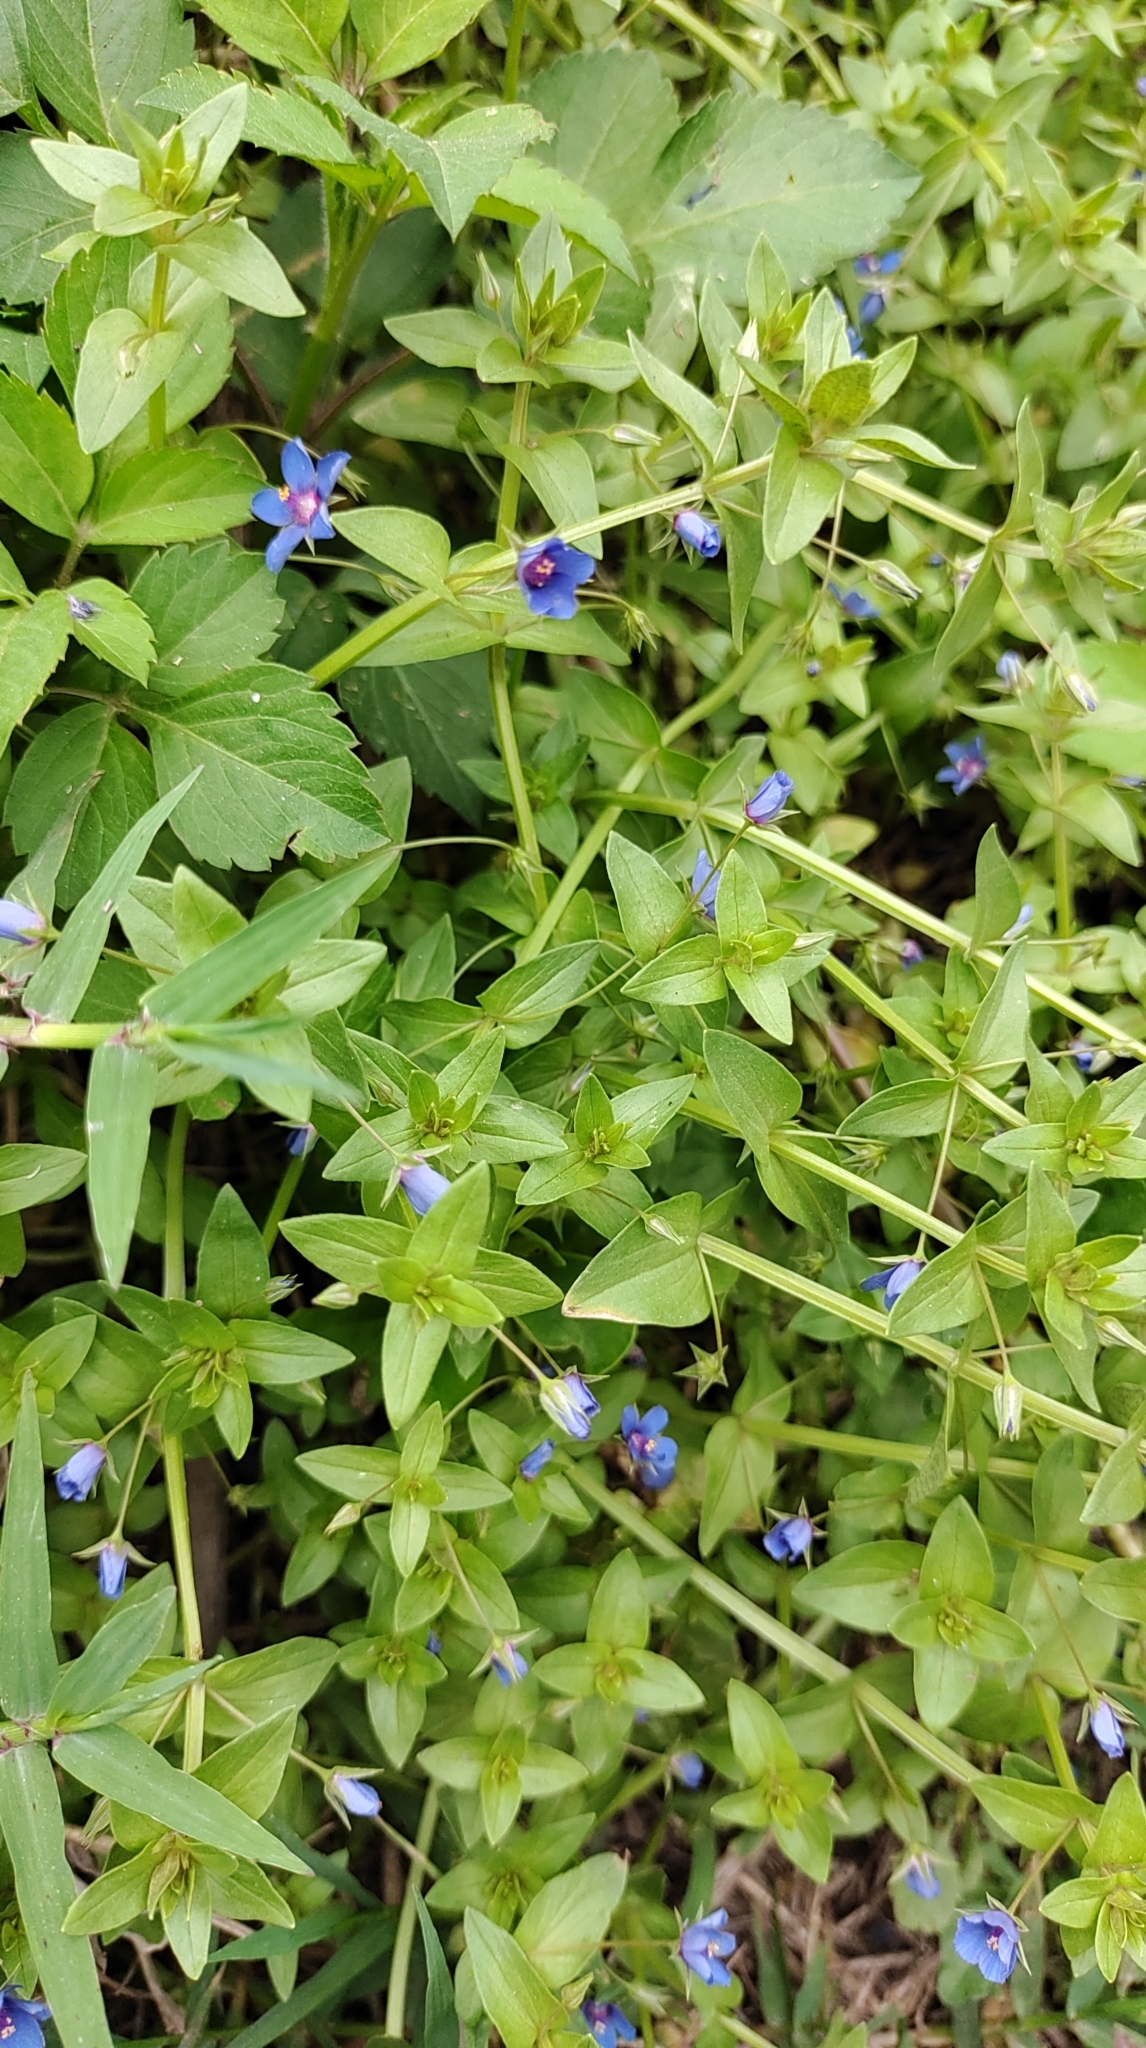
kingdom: Plantae
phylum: Tracheophyta
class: Magnoliopsida
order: Ericales
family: Primulaceae
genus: Lysimachia
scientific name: Lysimachia loeflingii
